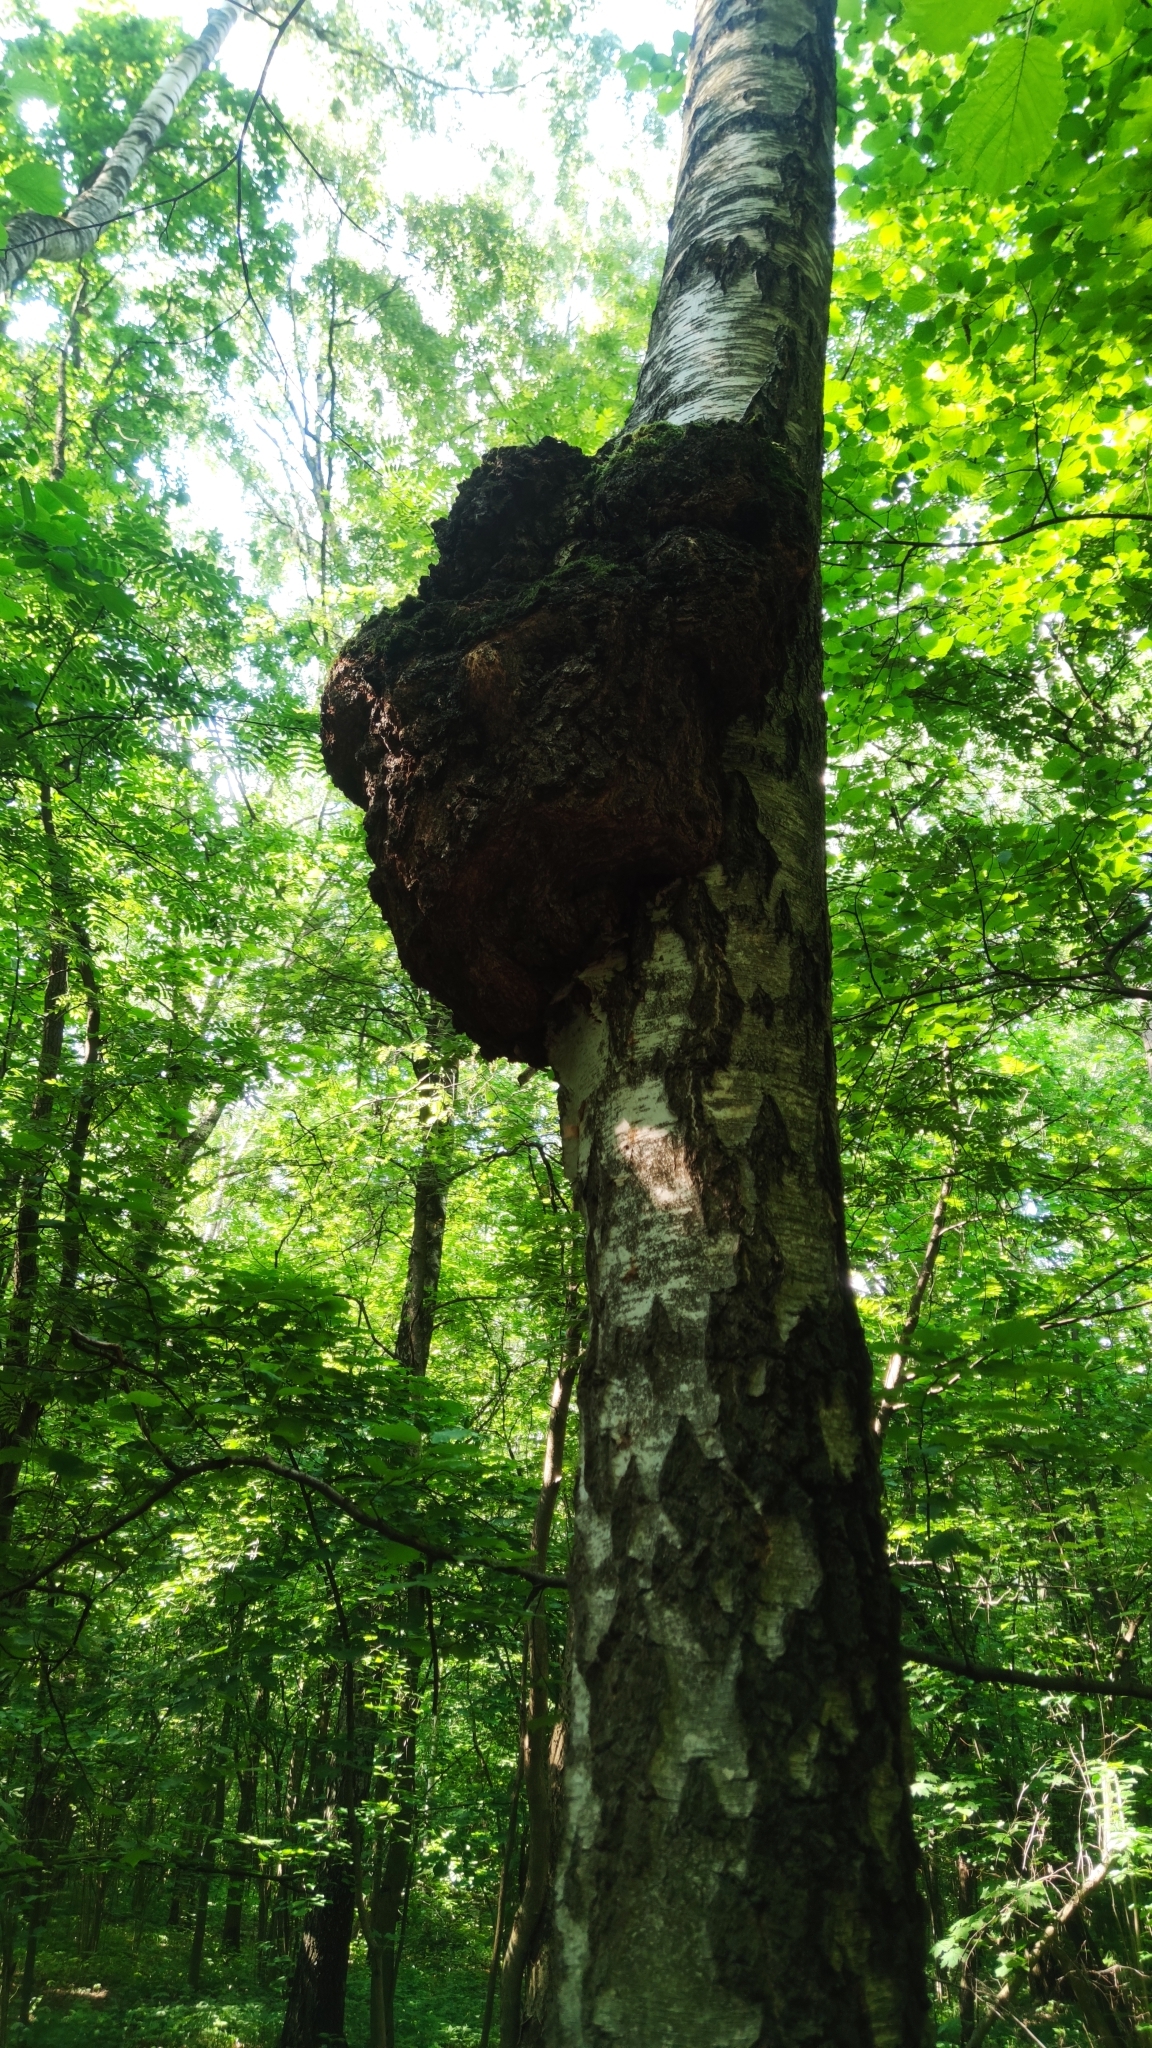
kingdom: Bacteria
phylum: Proteobacteria
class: Alphaproteobacteria
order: Rhizobiales
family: Rhizobiaceae
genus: Rhizobium
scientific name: Rhizobium Agrobacterium radiobacter
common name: Bacterial crown gall
